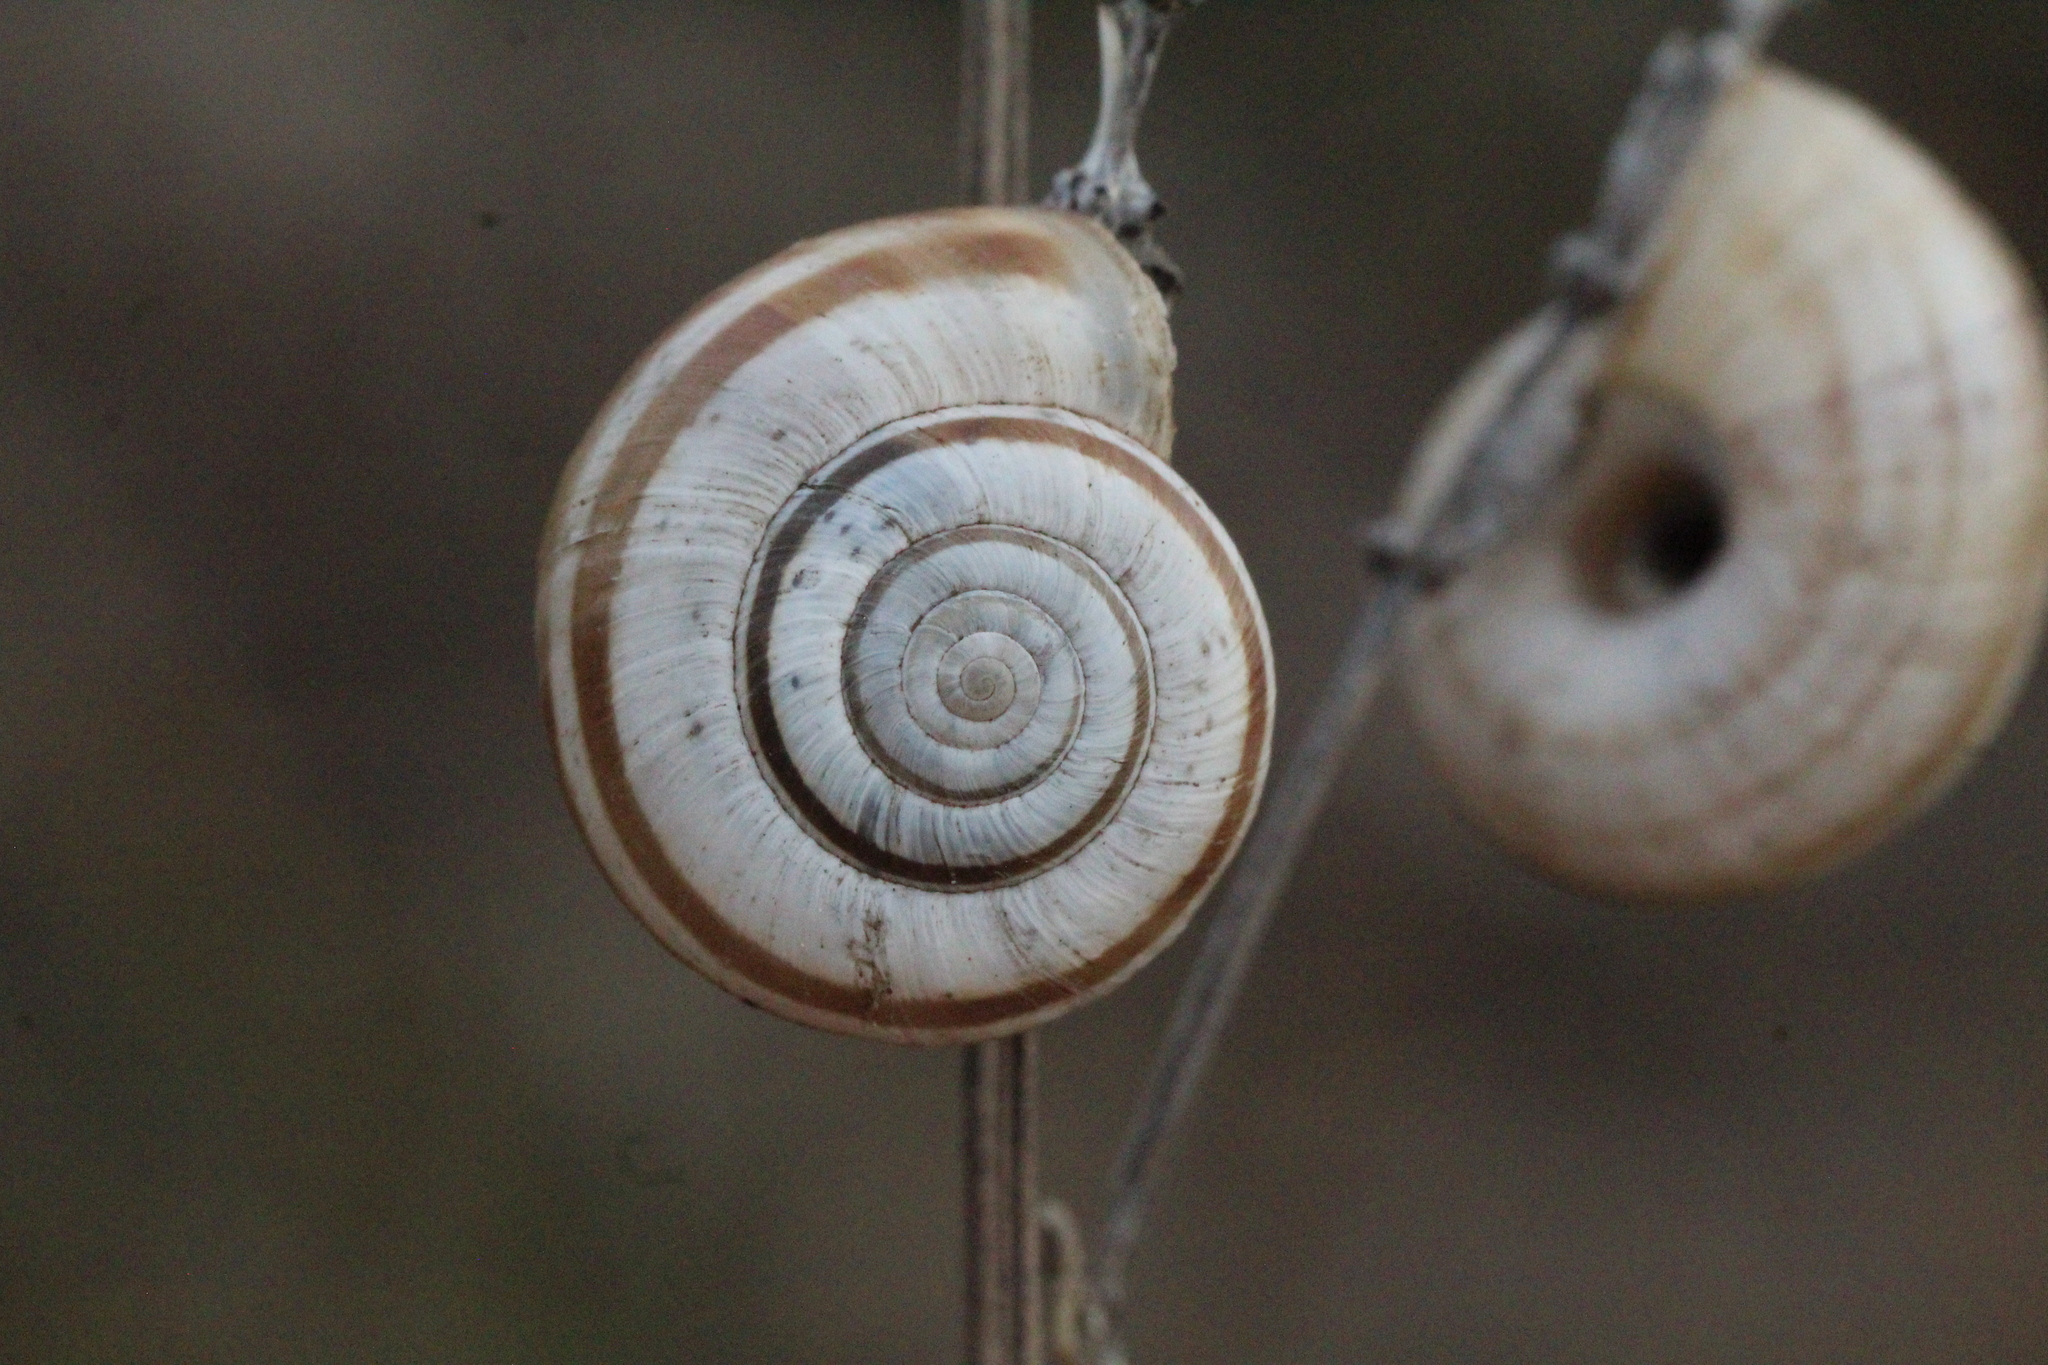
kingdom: Animalia
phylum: Mollusca
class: Gastropoda
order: Stylommatophora
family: Geomitridae
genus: Helicella
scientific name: Helicella itala
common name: Heath snail
